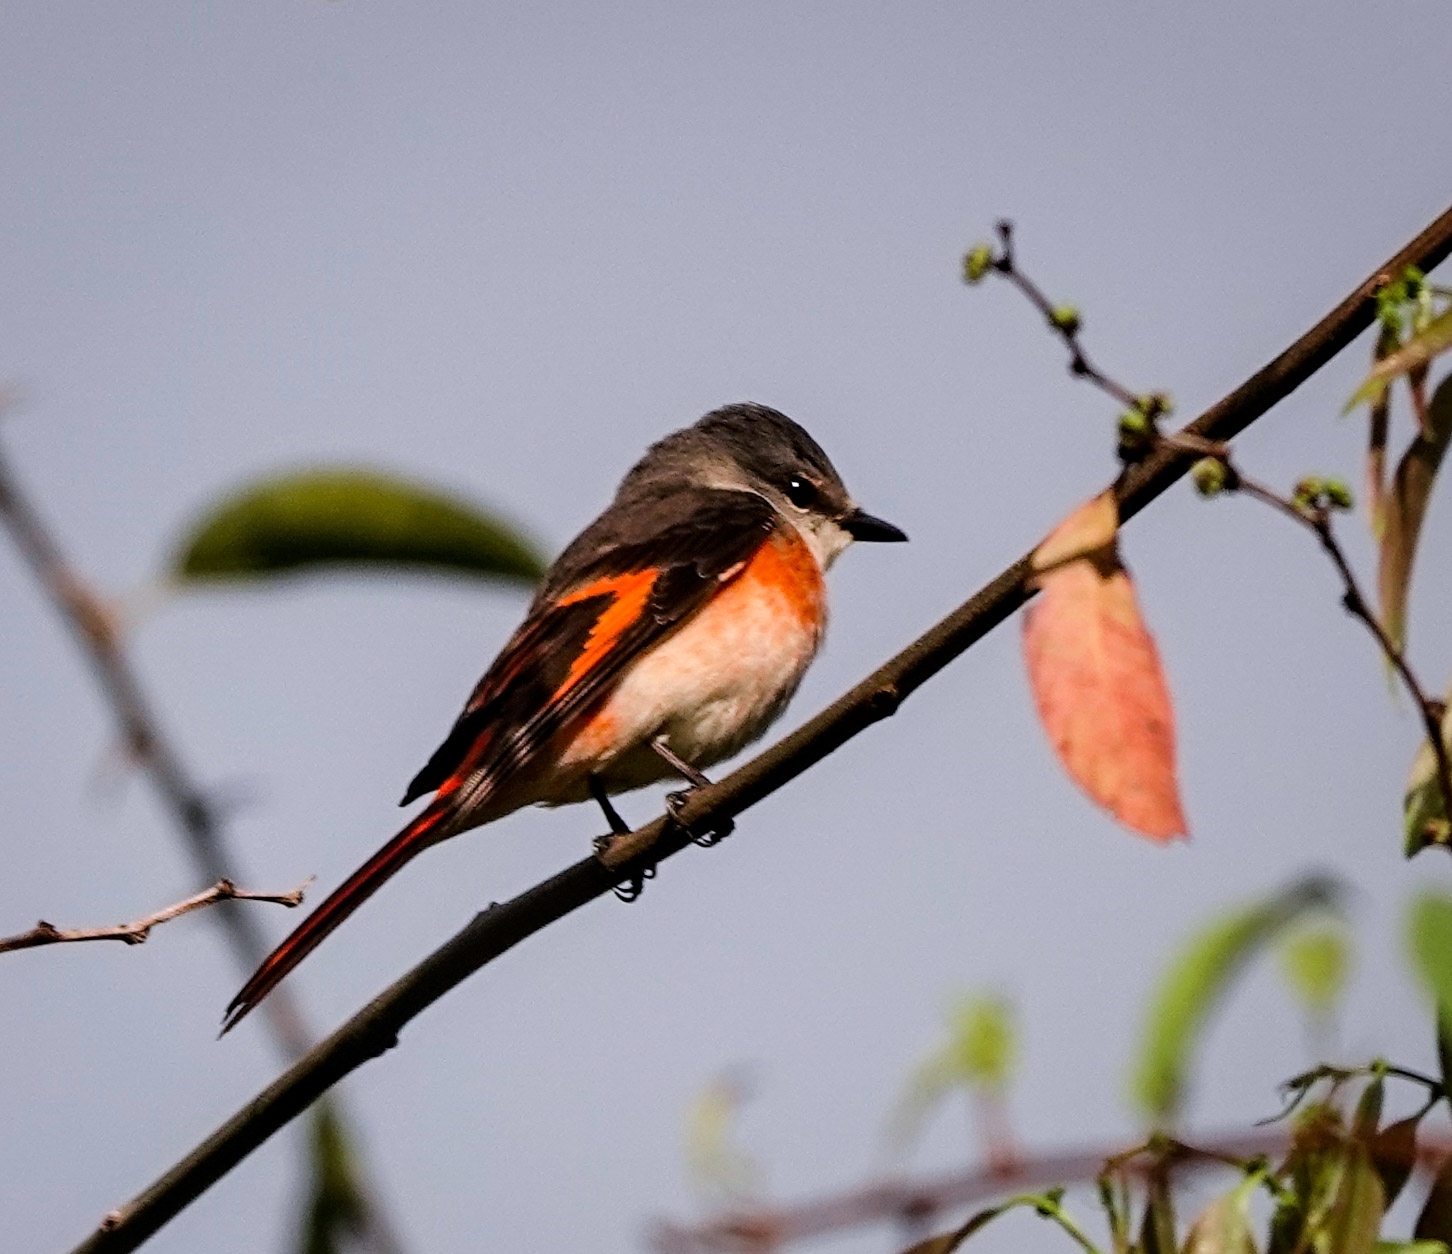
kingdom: Animalia
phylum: Chordata
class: Aves
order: Passeriformes
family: Campephagidae
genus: Pericrocotus
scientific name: Pericrocotus roseus
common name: Rosy minivet
